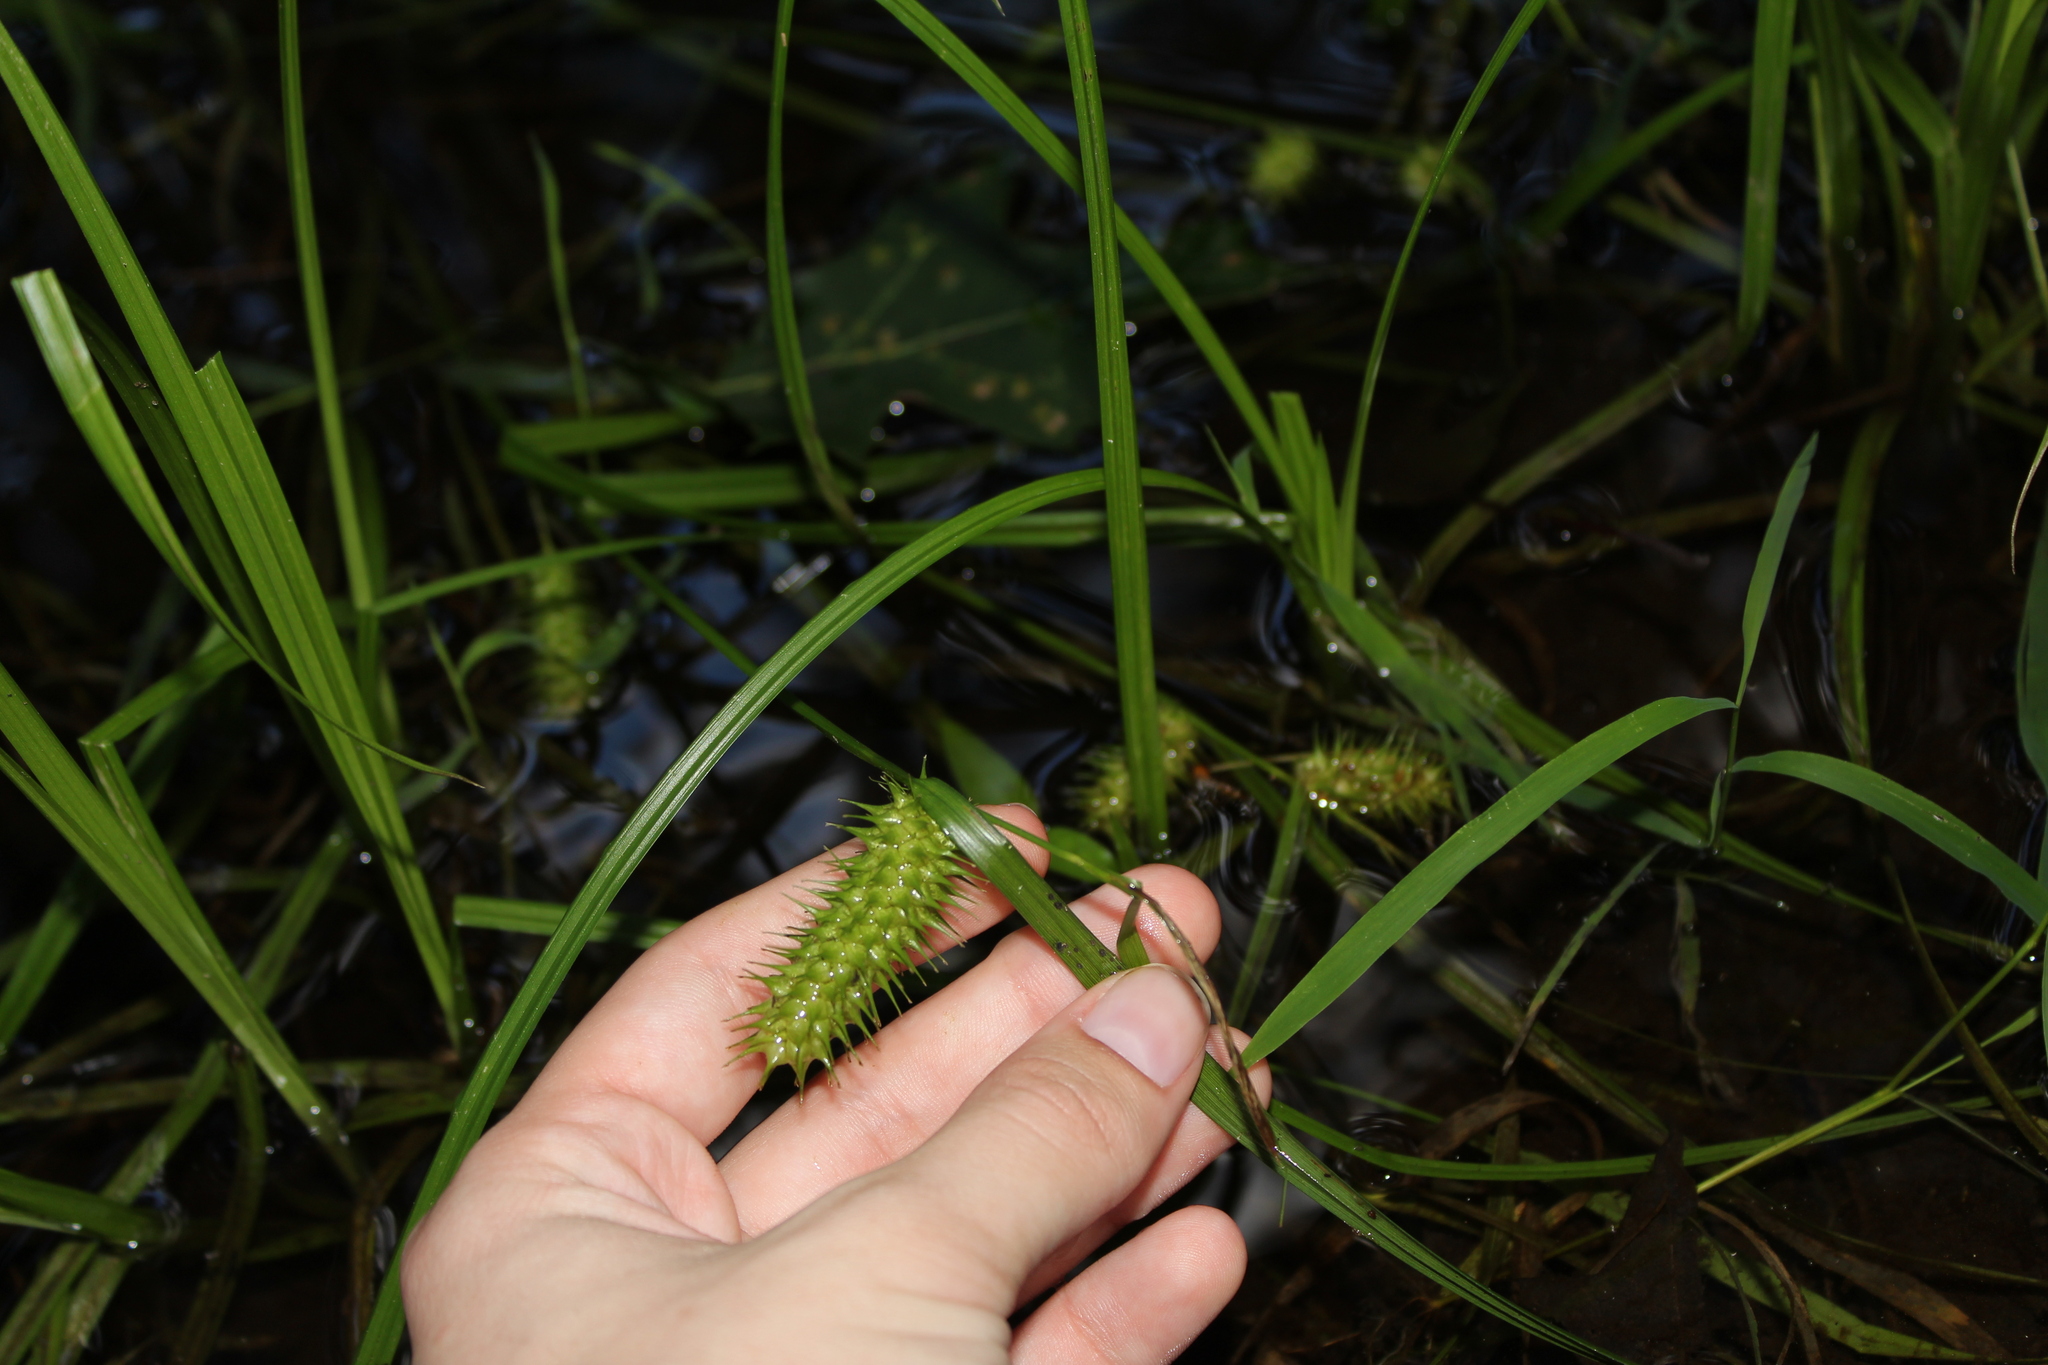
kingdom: Plantae
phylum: Tracheophyta
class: Liliopsida
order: Poales
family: Cyperaceae
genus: Carex
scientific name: Carex lurida
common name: Sallow sedge
